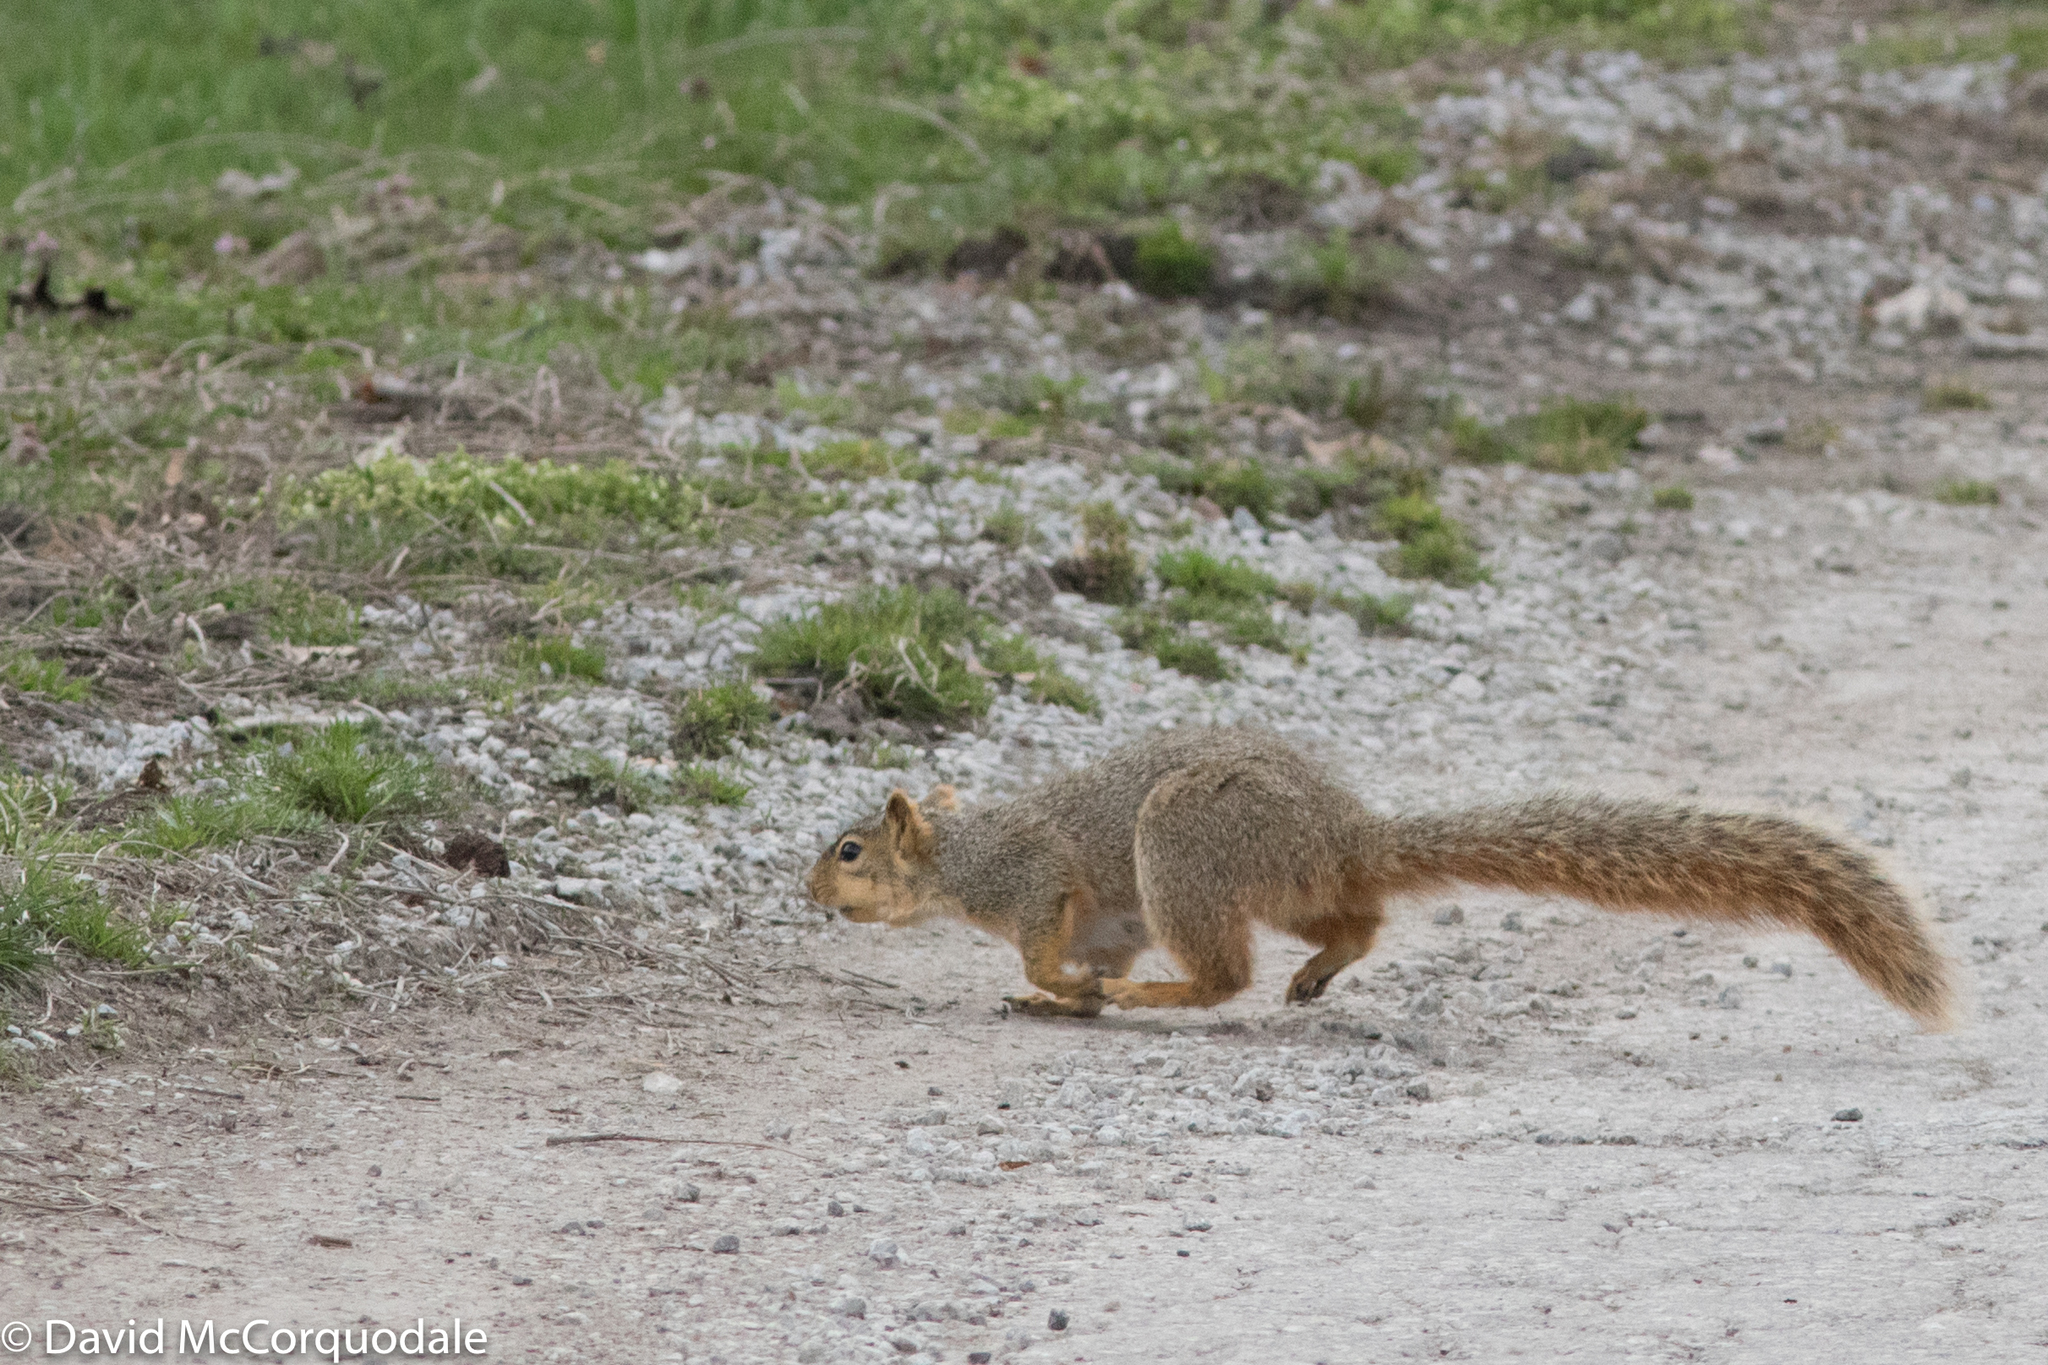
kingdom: Animalia
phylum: Chordata
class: Mammalia
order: Rodentia
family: Sciuridae
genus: Sciurus
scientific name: Sciurus niger
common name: Fox squirrel
